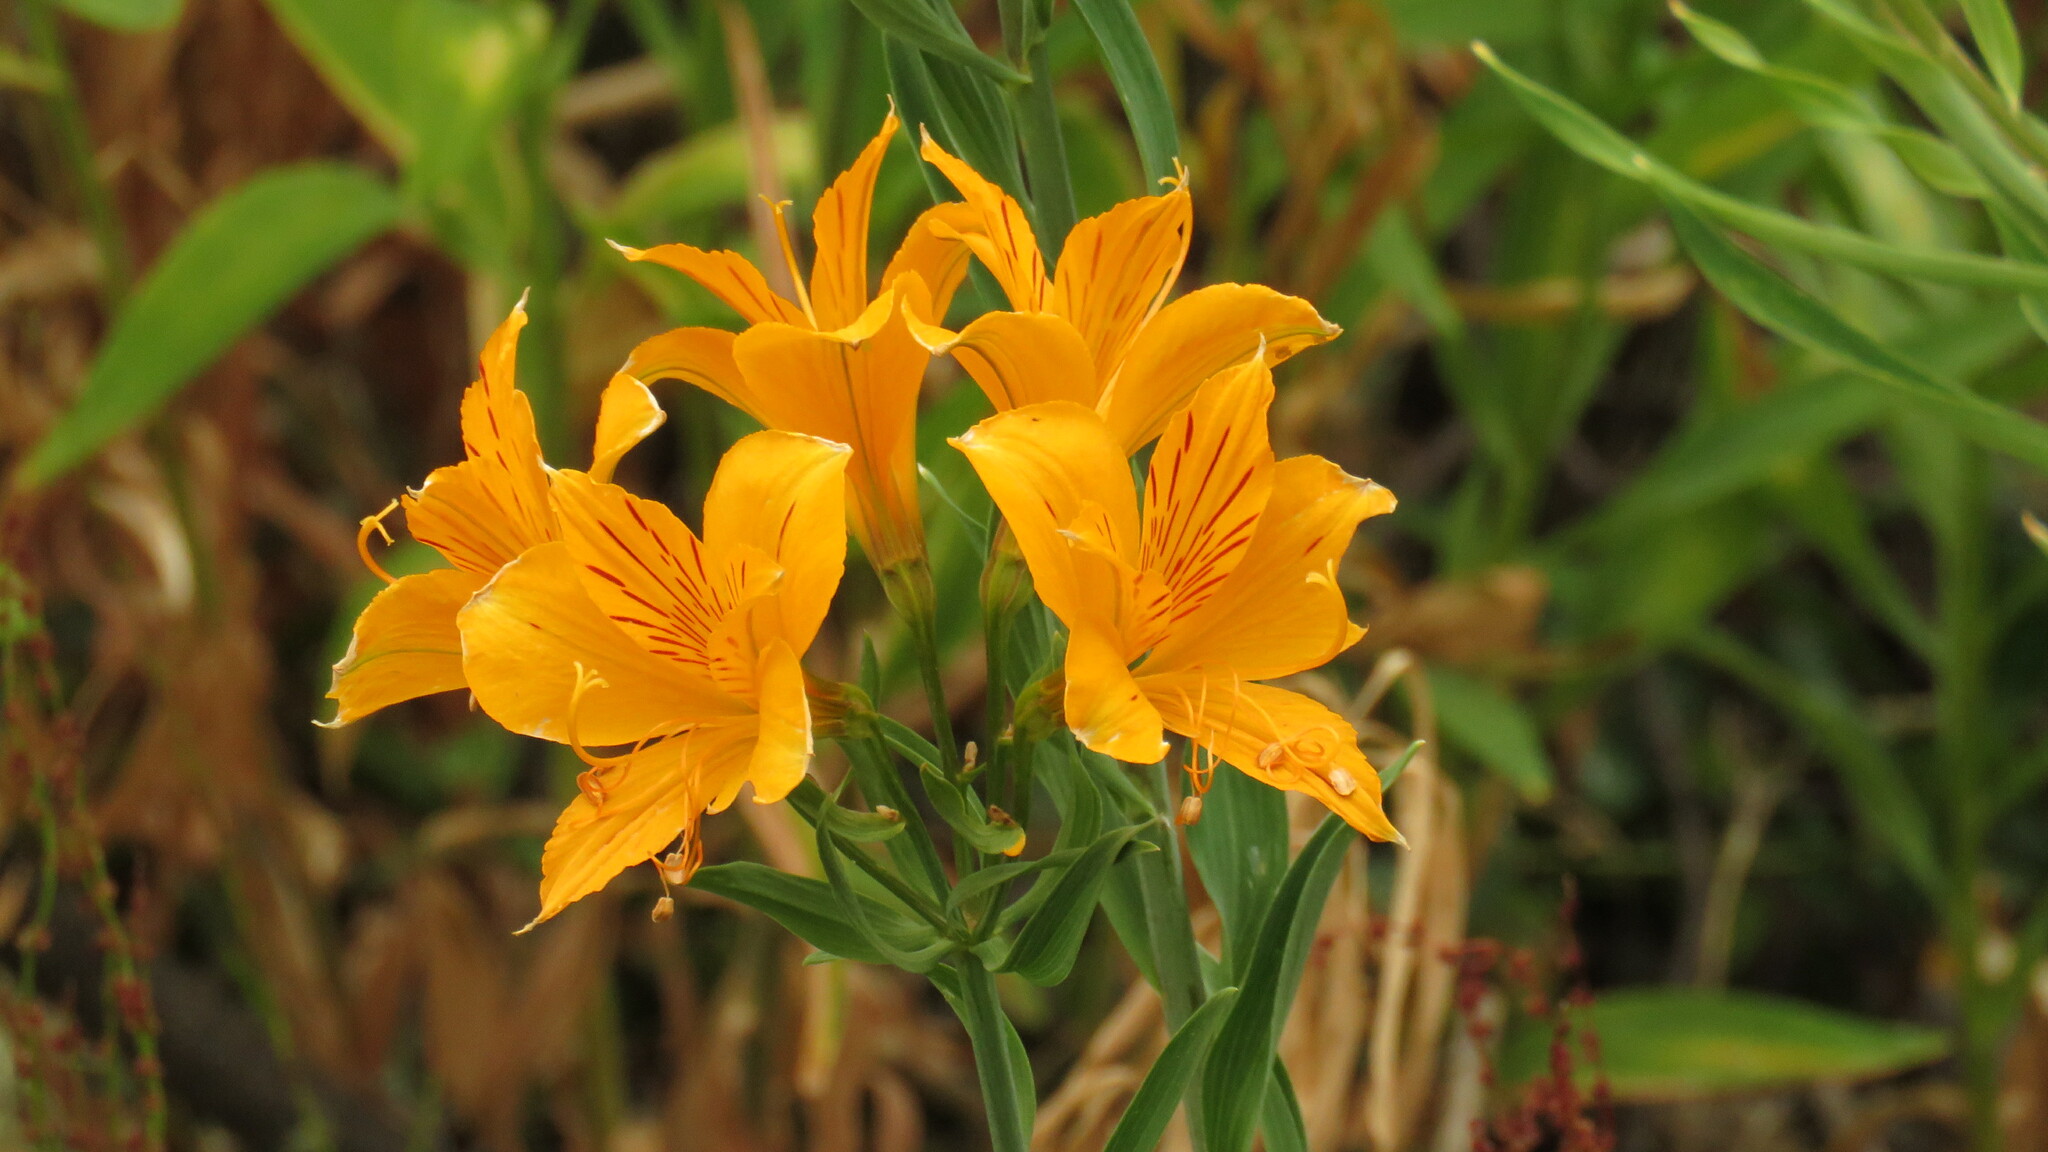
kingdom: Plantae
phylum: Tracheophyta
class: Liliopsida
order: Liliales
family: Alstroemeriaceae
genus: Alstroemeria
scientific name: Alstroemeria aurea
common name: Peruvian lily
